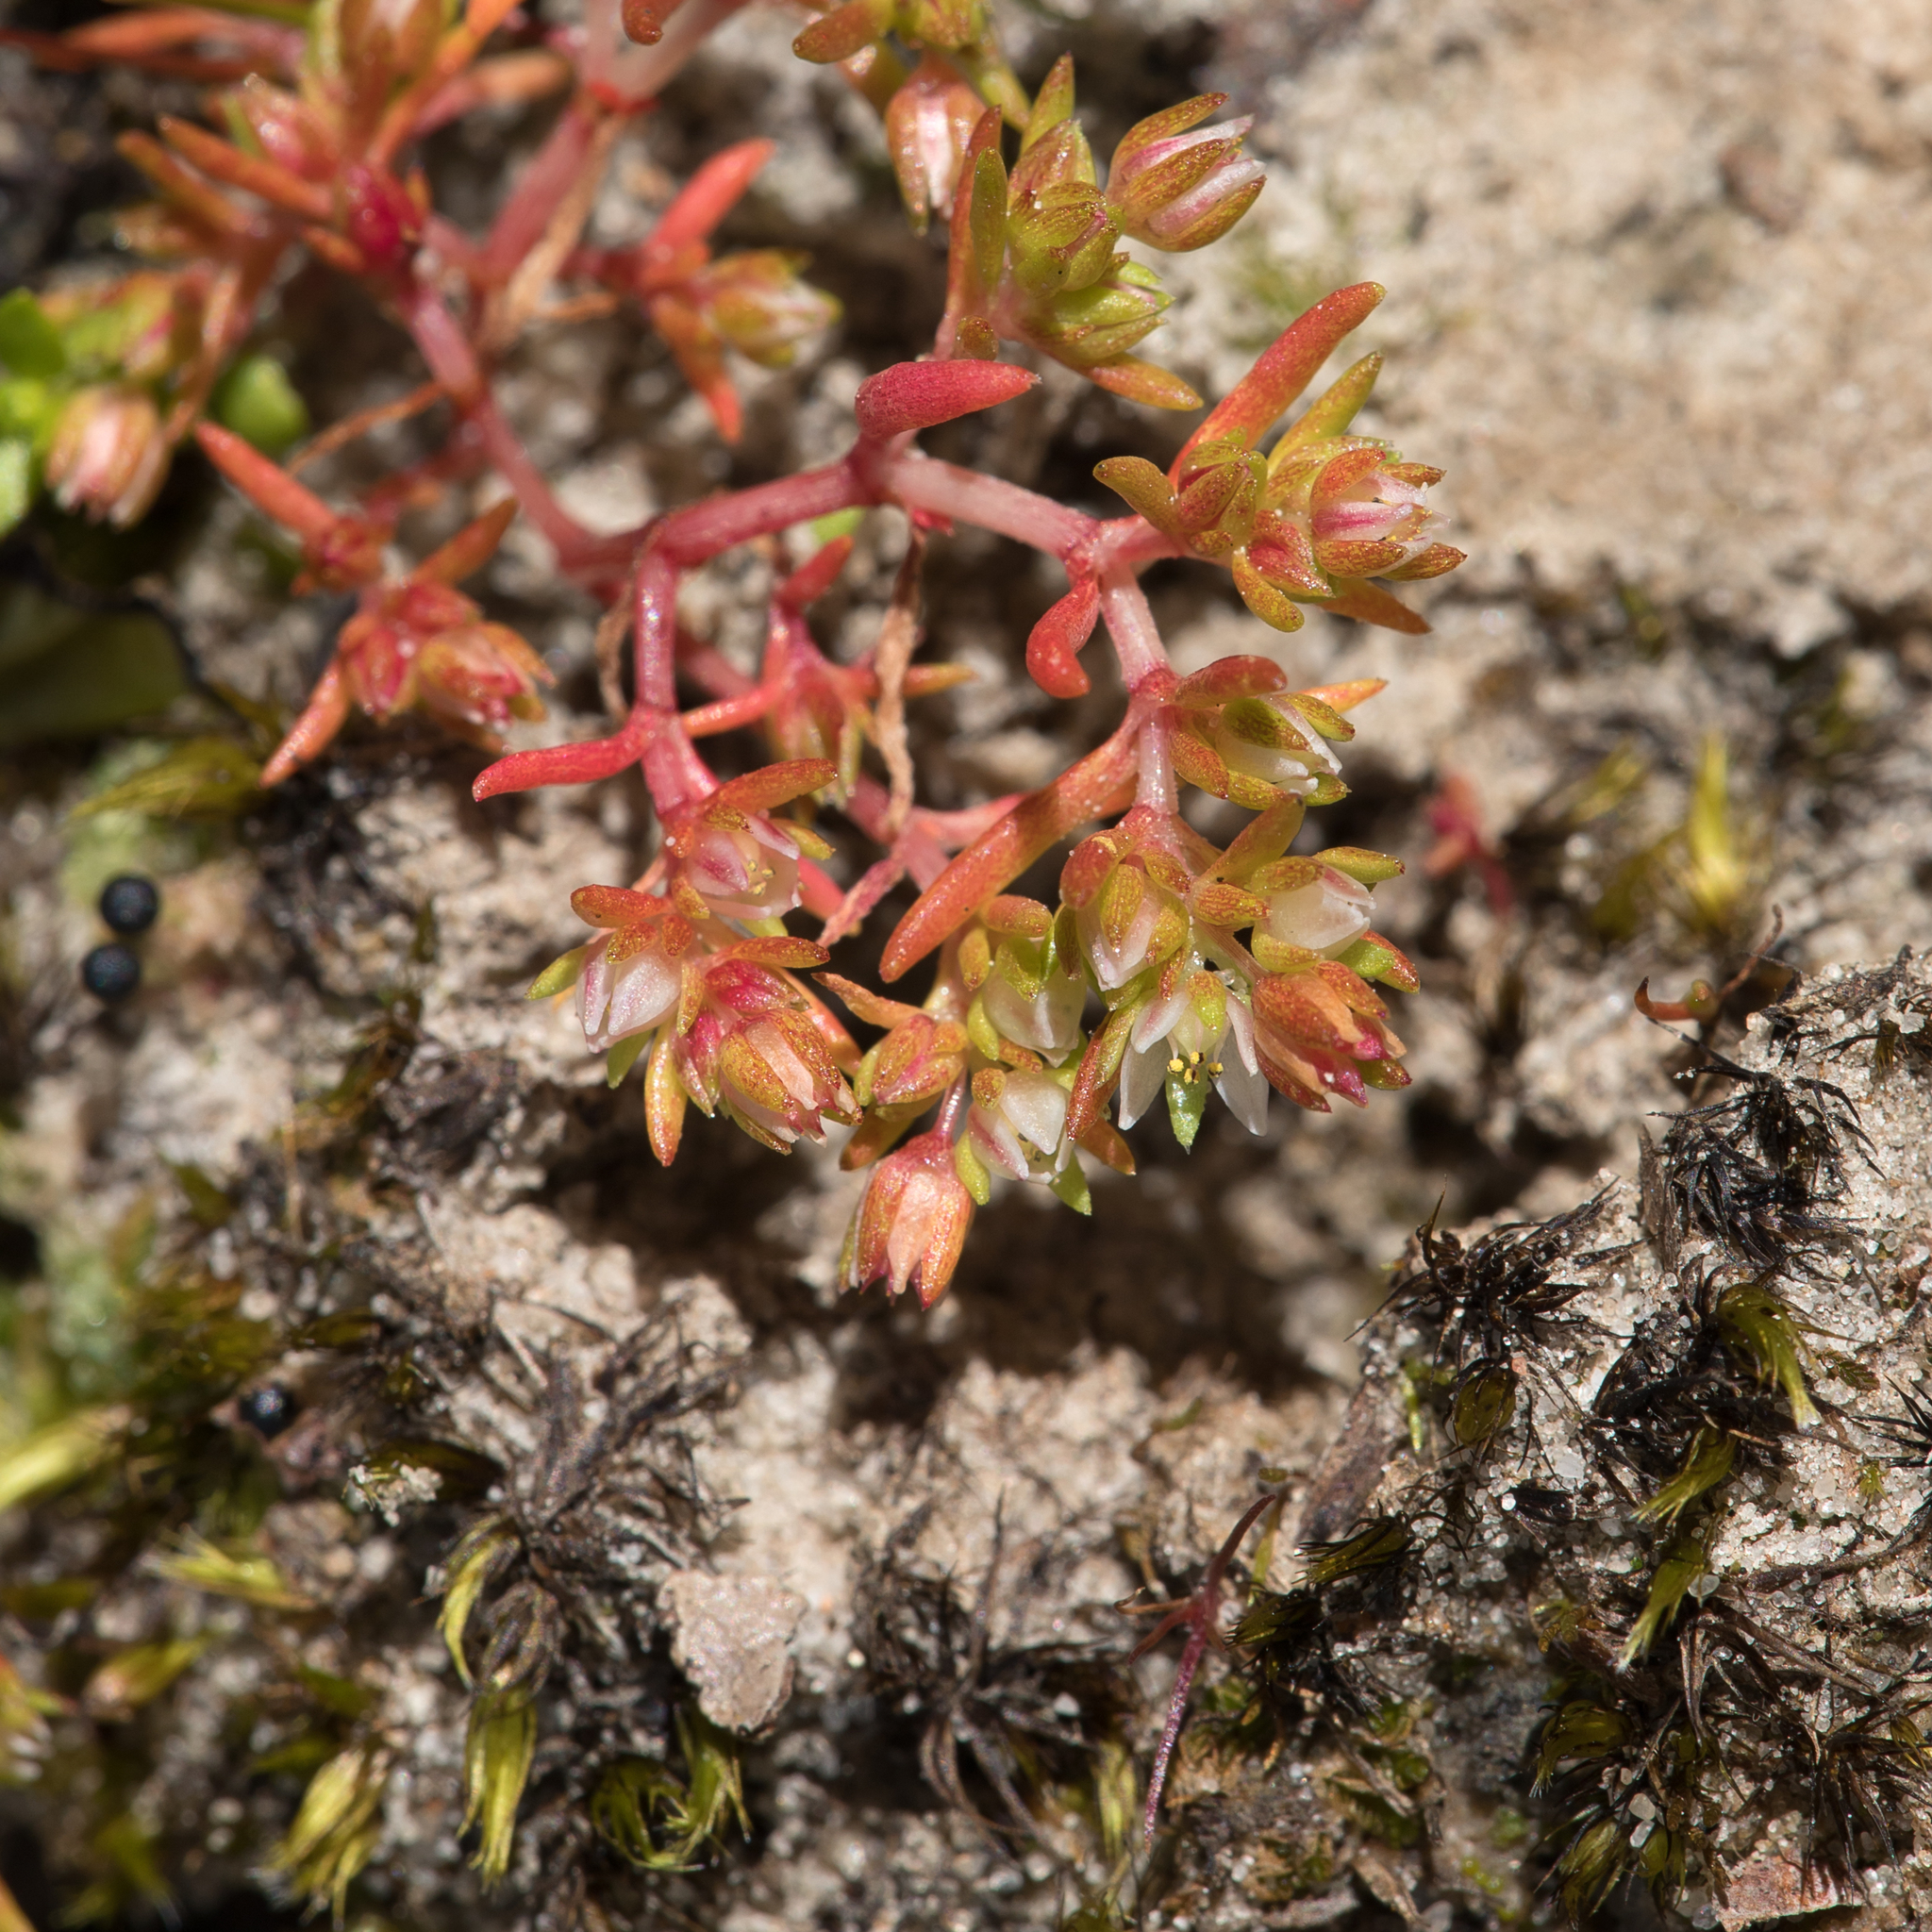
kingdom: Plantae
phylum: Tracheophyta
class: Magnoliopsida
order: Saxifragales
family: Crassulaceae
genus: Crassula
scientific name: Crassula decumbens
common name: Scilly pigmyweed
